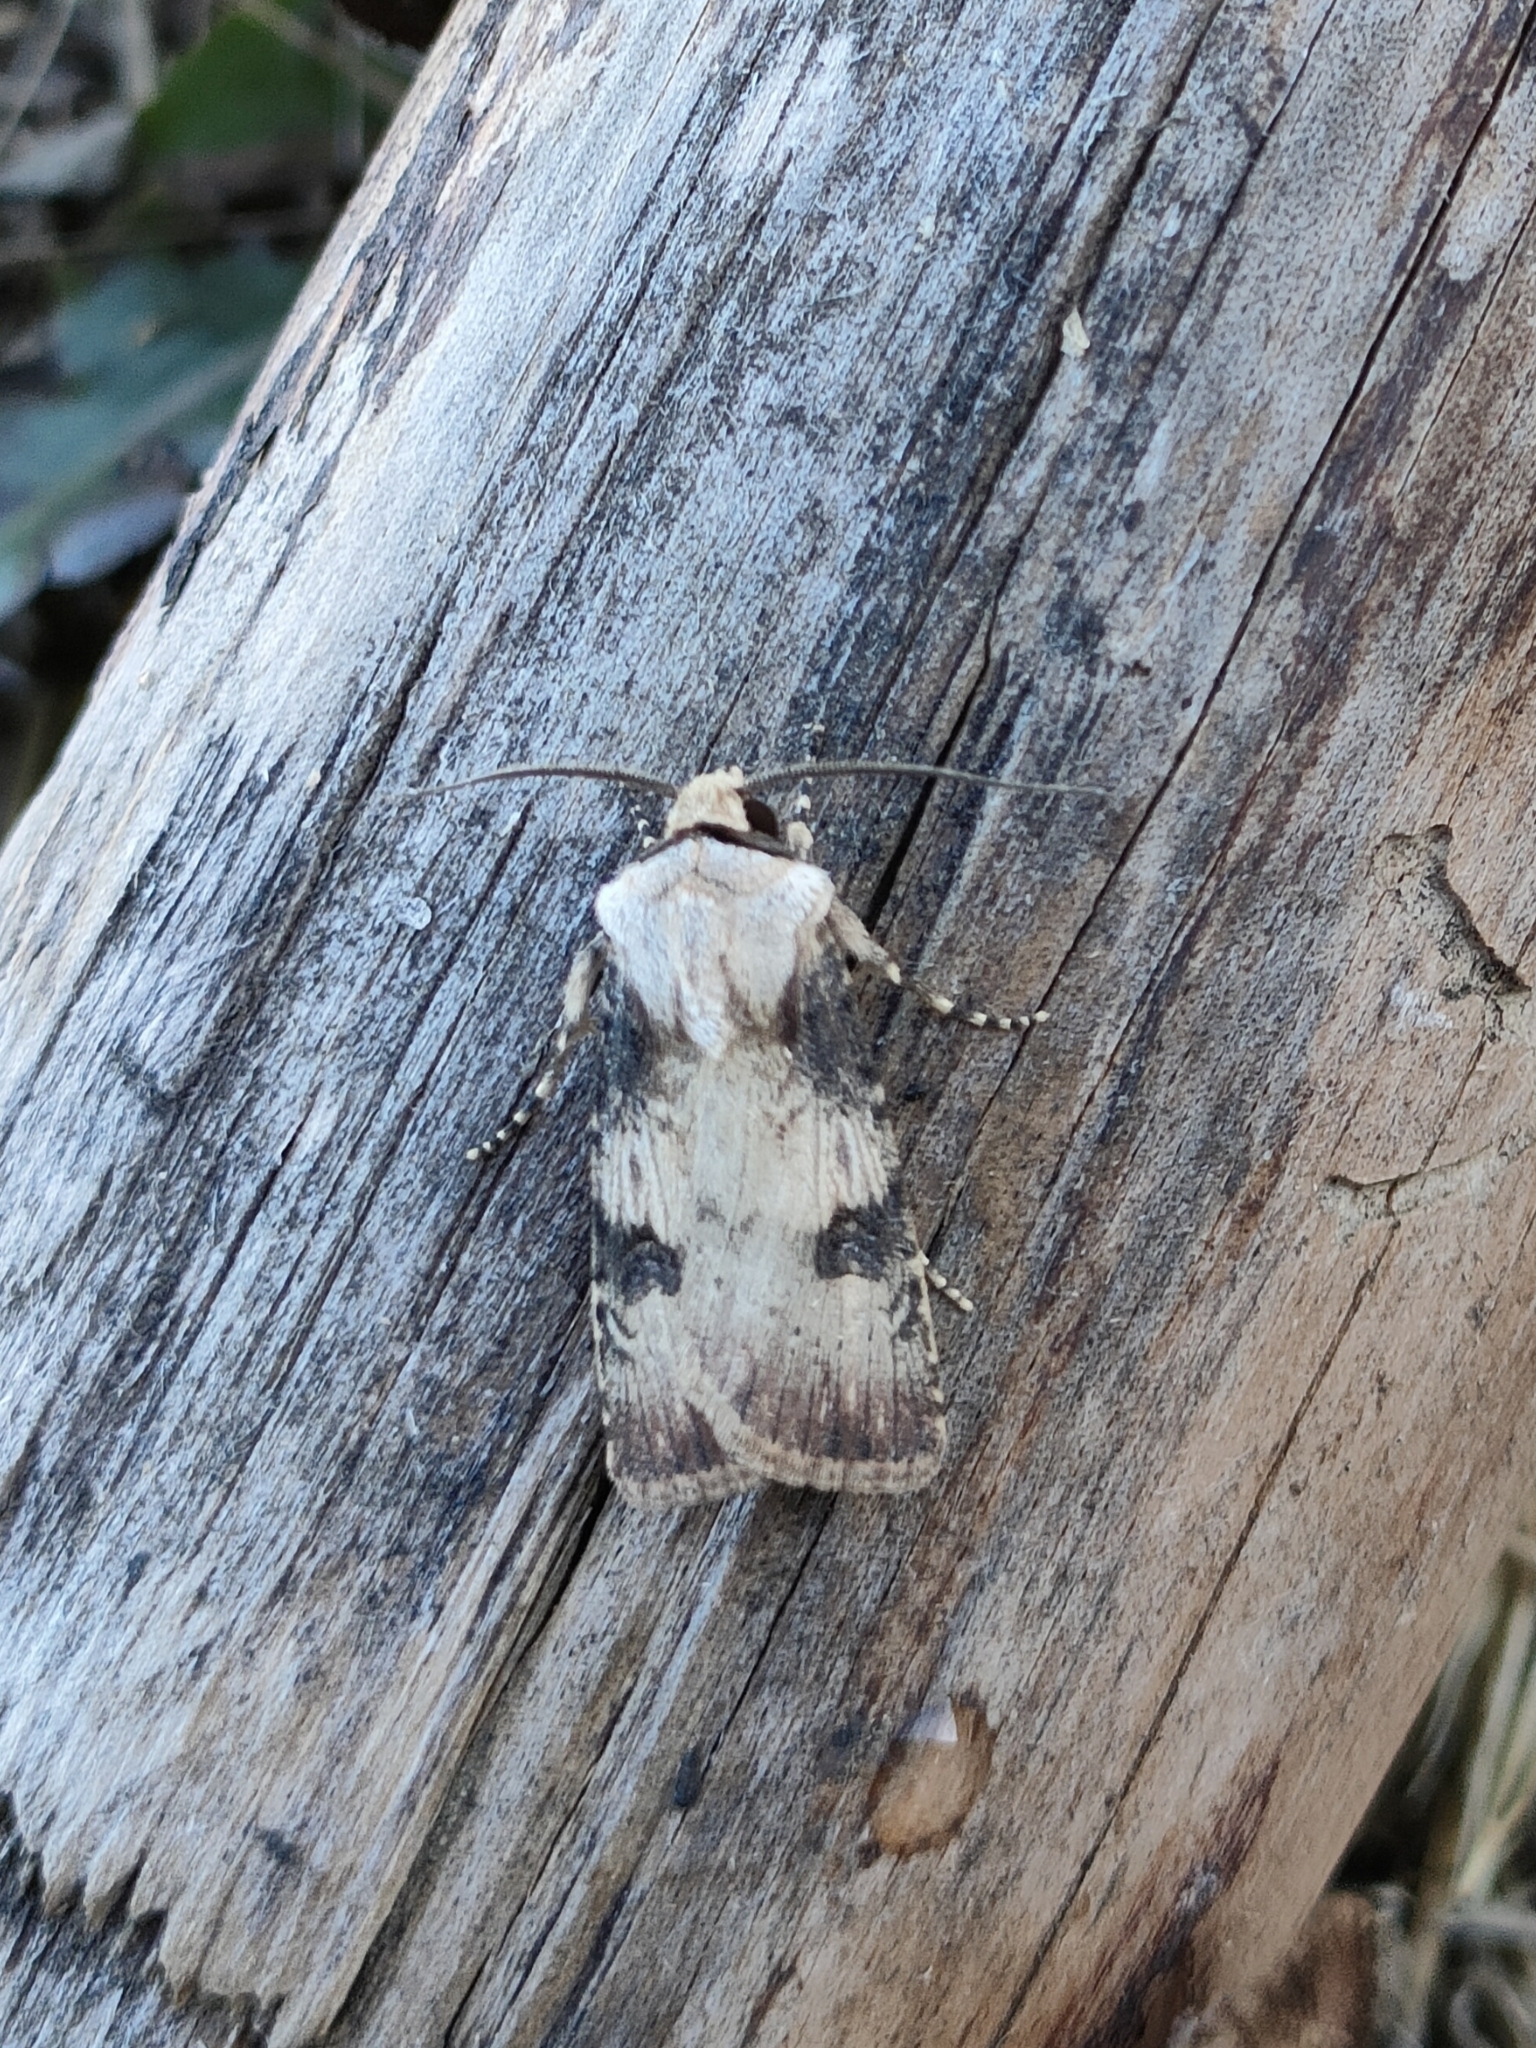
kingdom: Animalia
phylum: Arthropoda
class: Insecta
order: Lepidoptera
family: Noctuidae
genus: Agrotis
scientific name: Agrotis puta
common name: Shuttle-shaped dart
